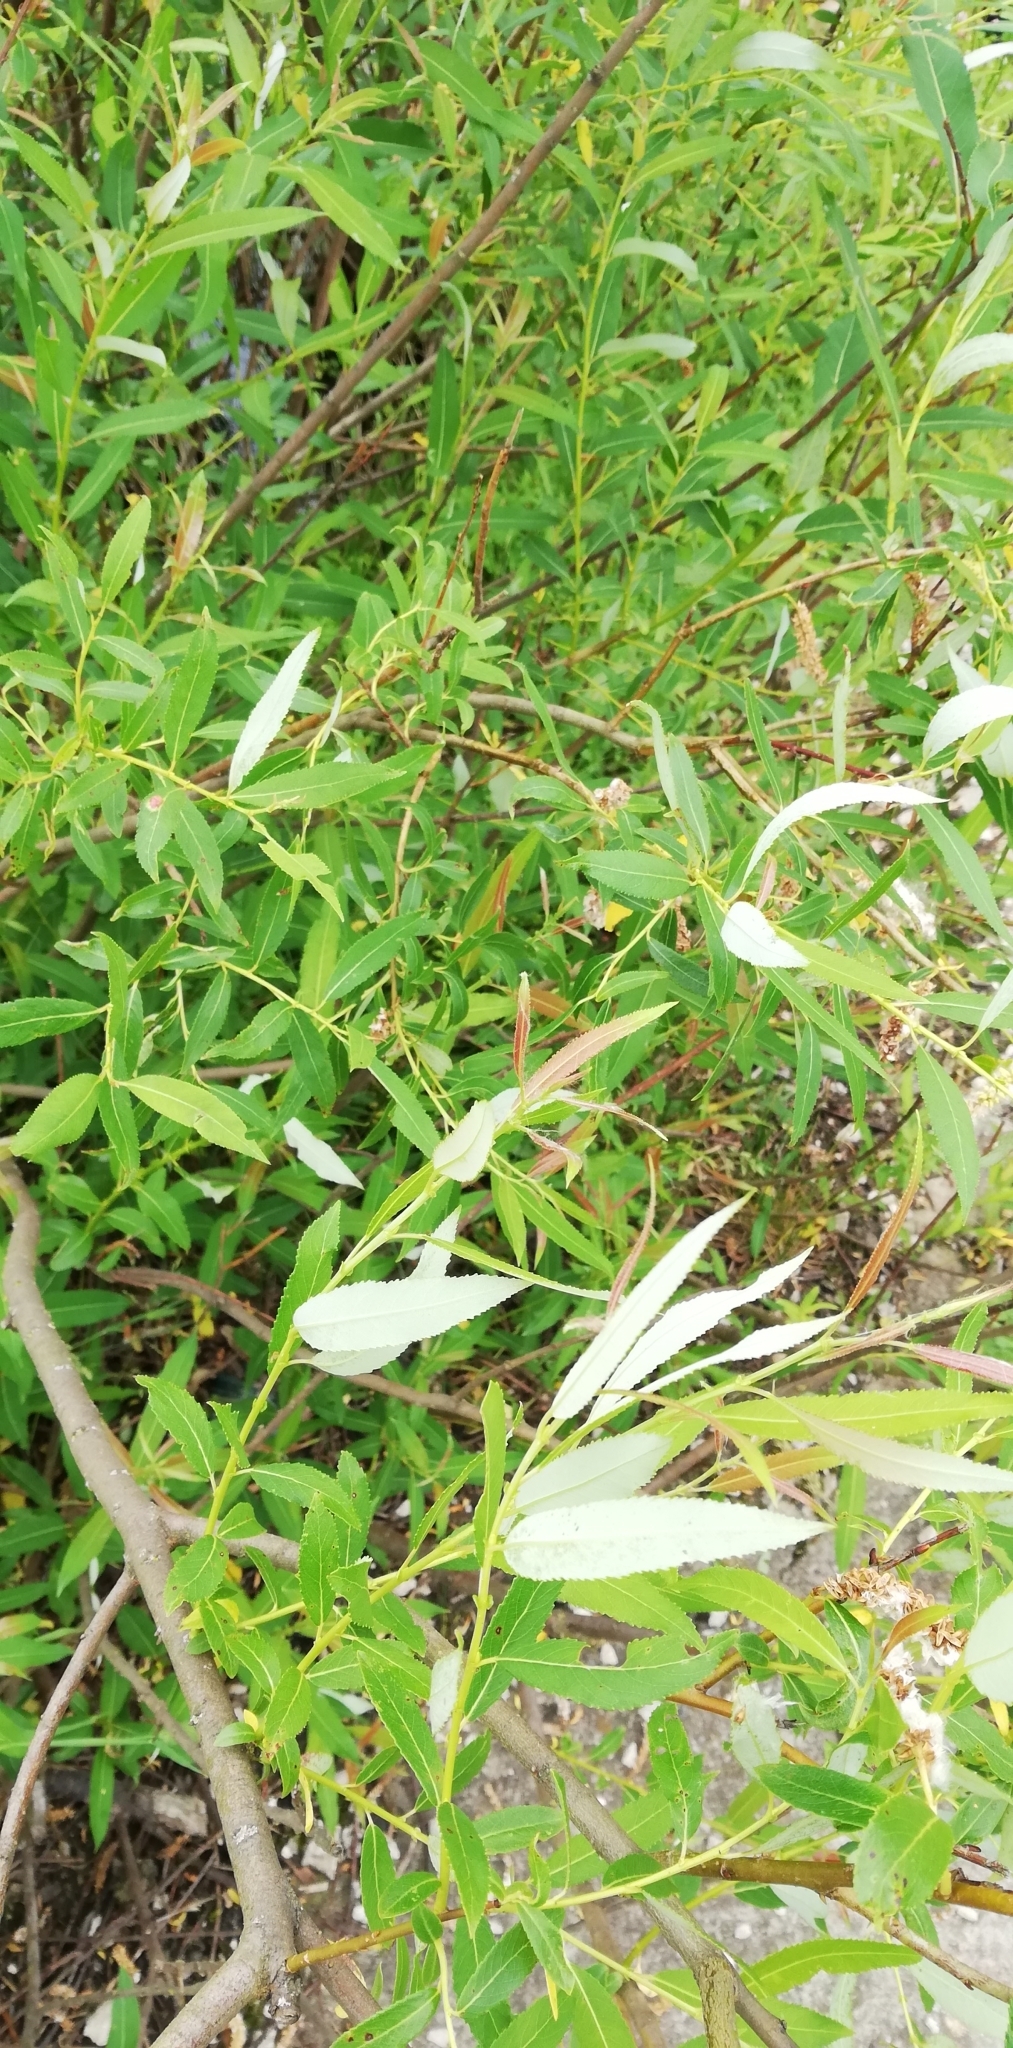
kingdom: Plantae
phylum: Tracheophyta
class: Magnoliopsida
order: Malpighiales
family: Salicaceae
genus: Salix
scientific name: Salix triandra
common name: Almond willow
